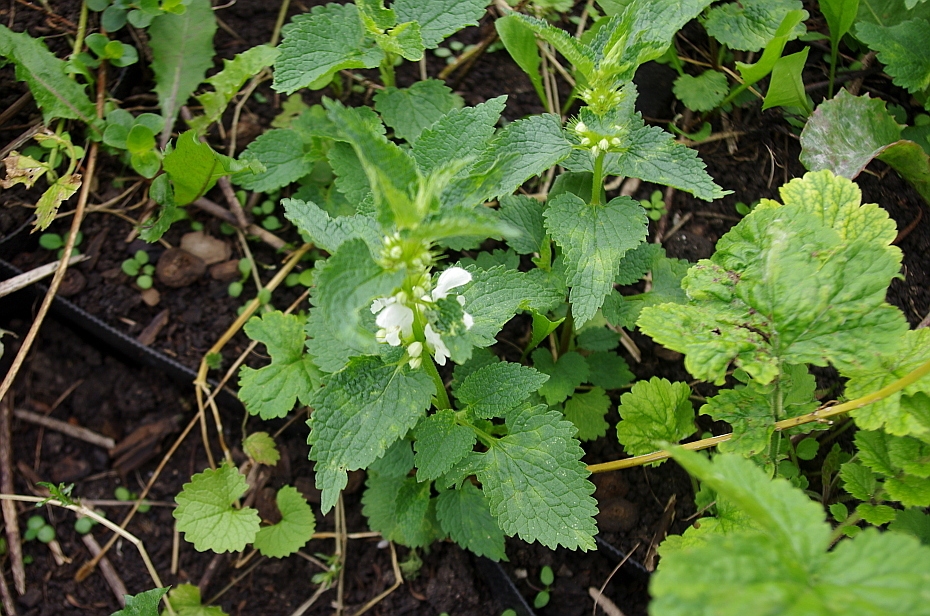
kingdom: Plantae
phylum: Tracheophyta
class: Magnoliopsida
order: Lamiales
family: Lamiaceae
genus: Lamium
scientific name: Lamium album
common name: White dead-nettle
